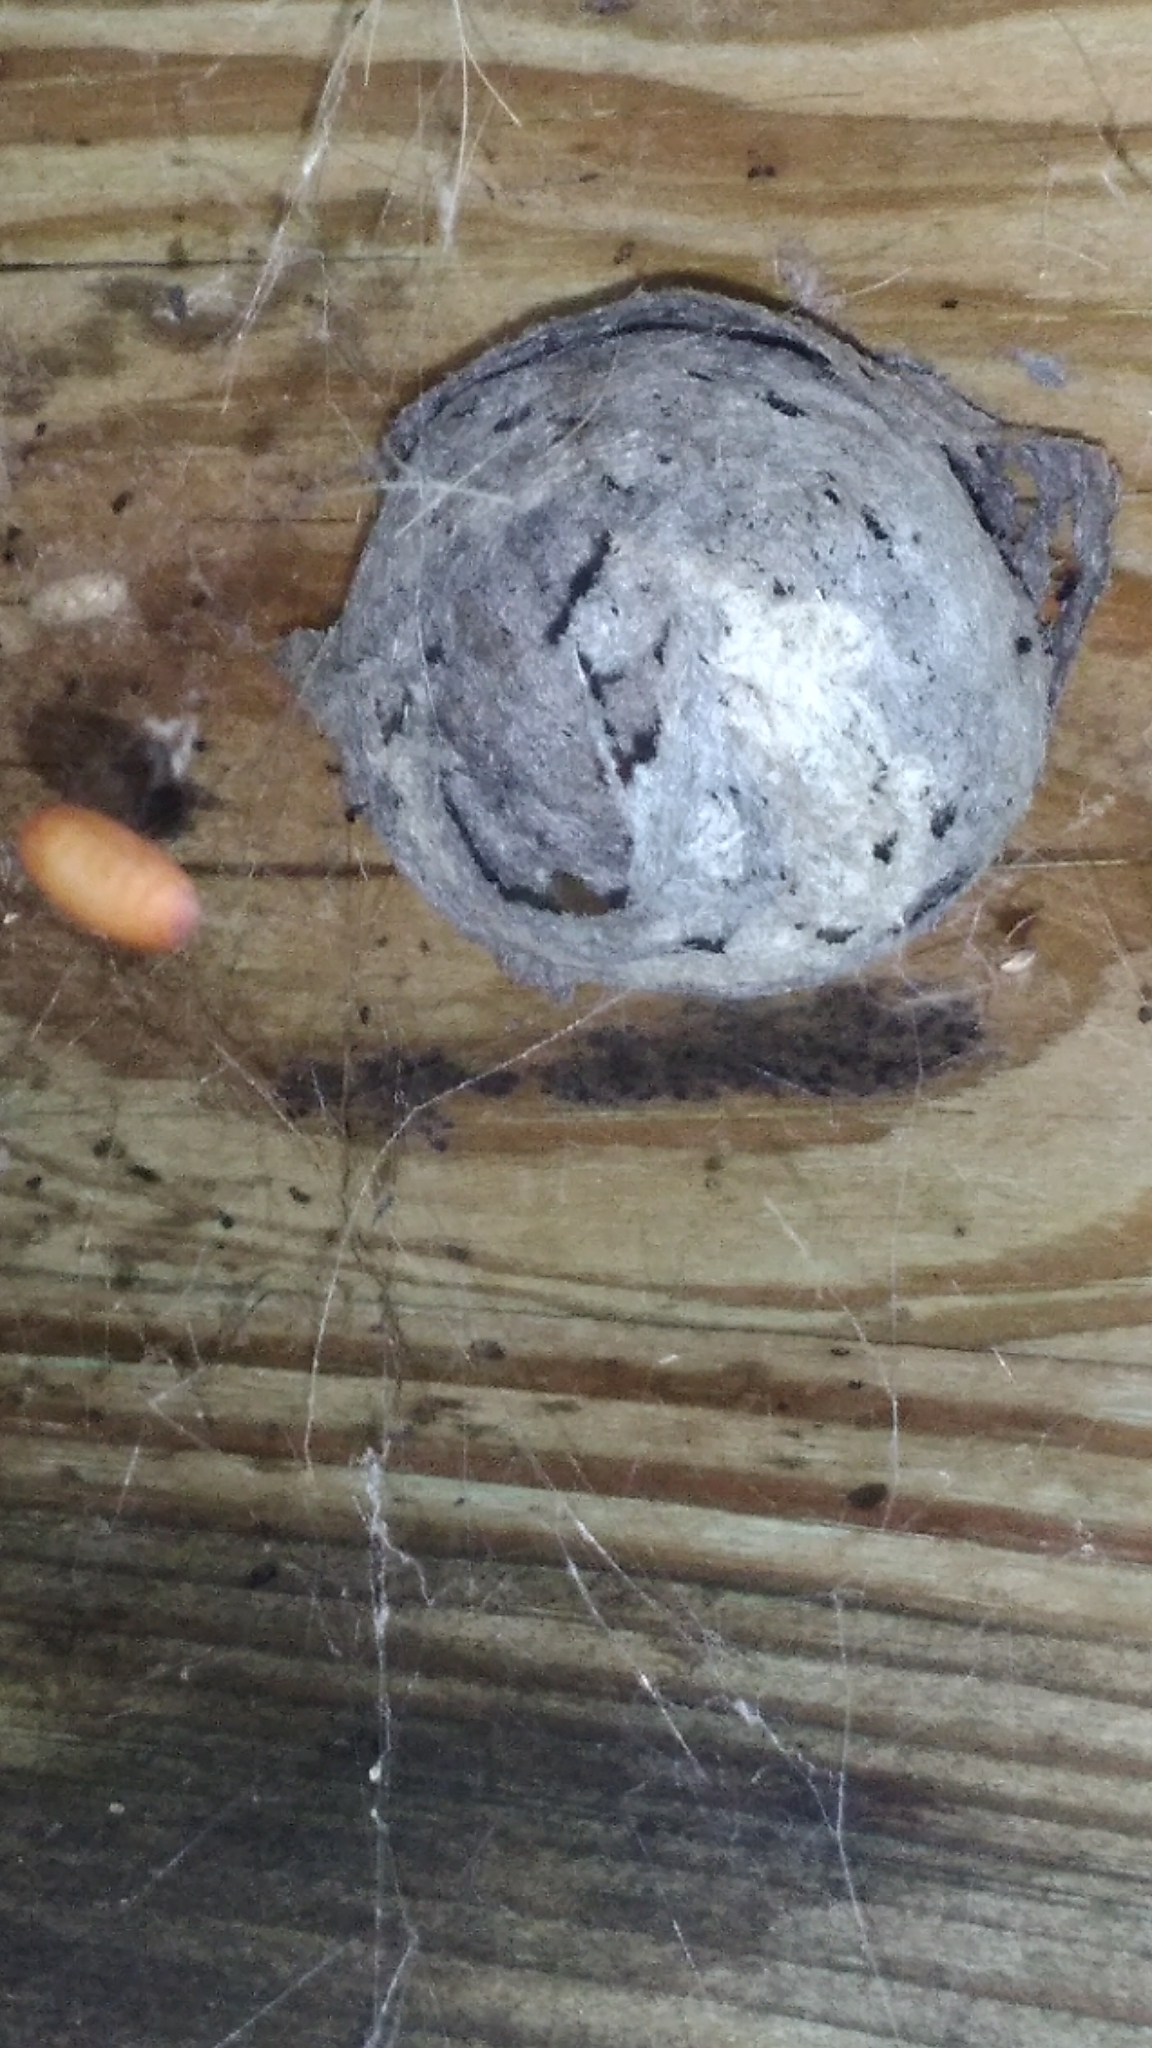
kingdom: Animalia
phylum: Arthropoda
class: Insecta
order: Hymenoptera
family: Vespidae
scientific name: Vespidae
